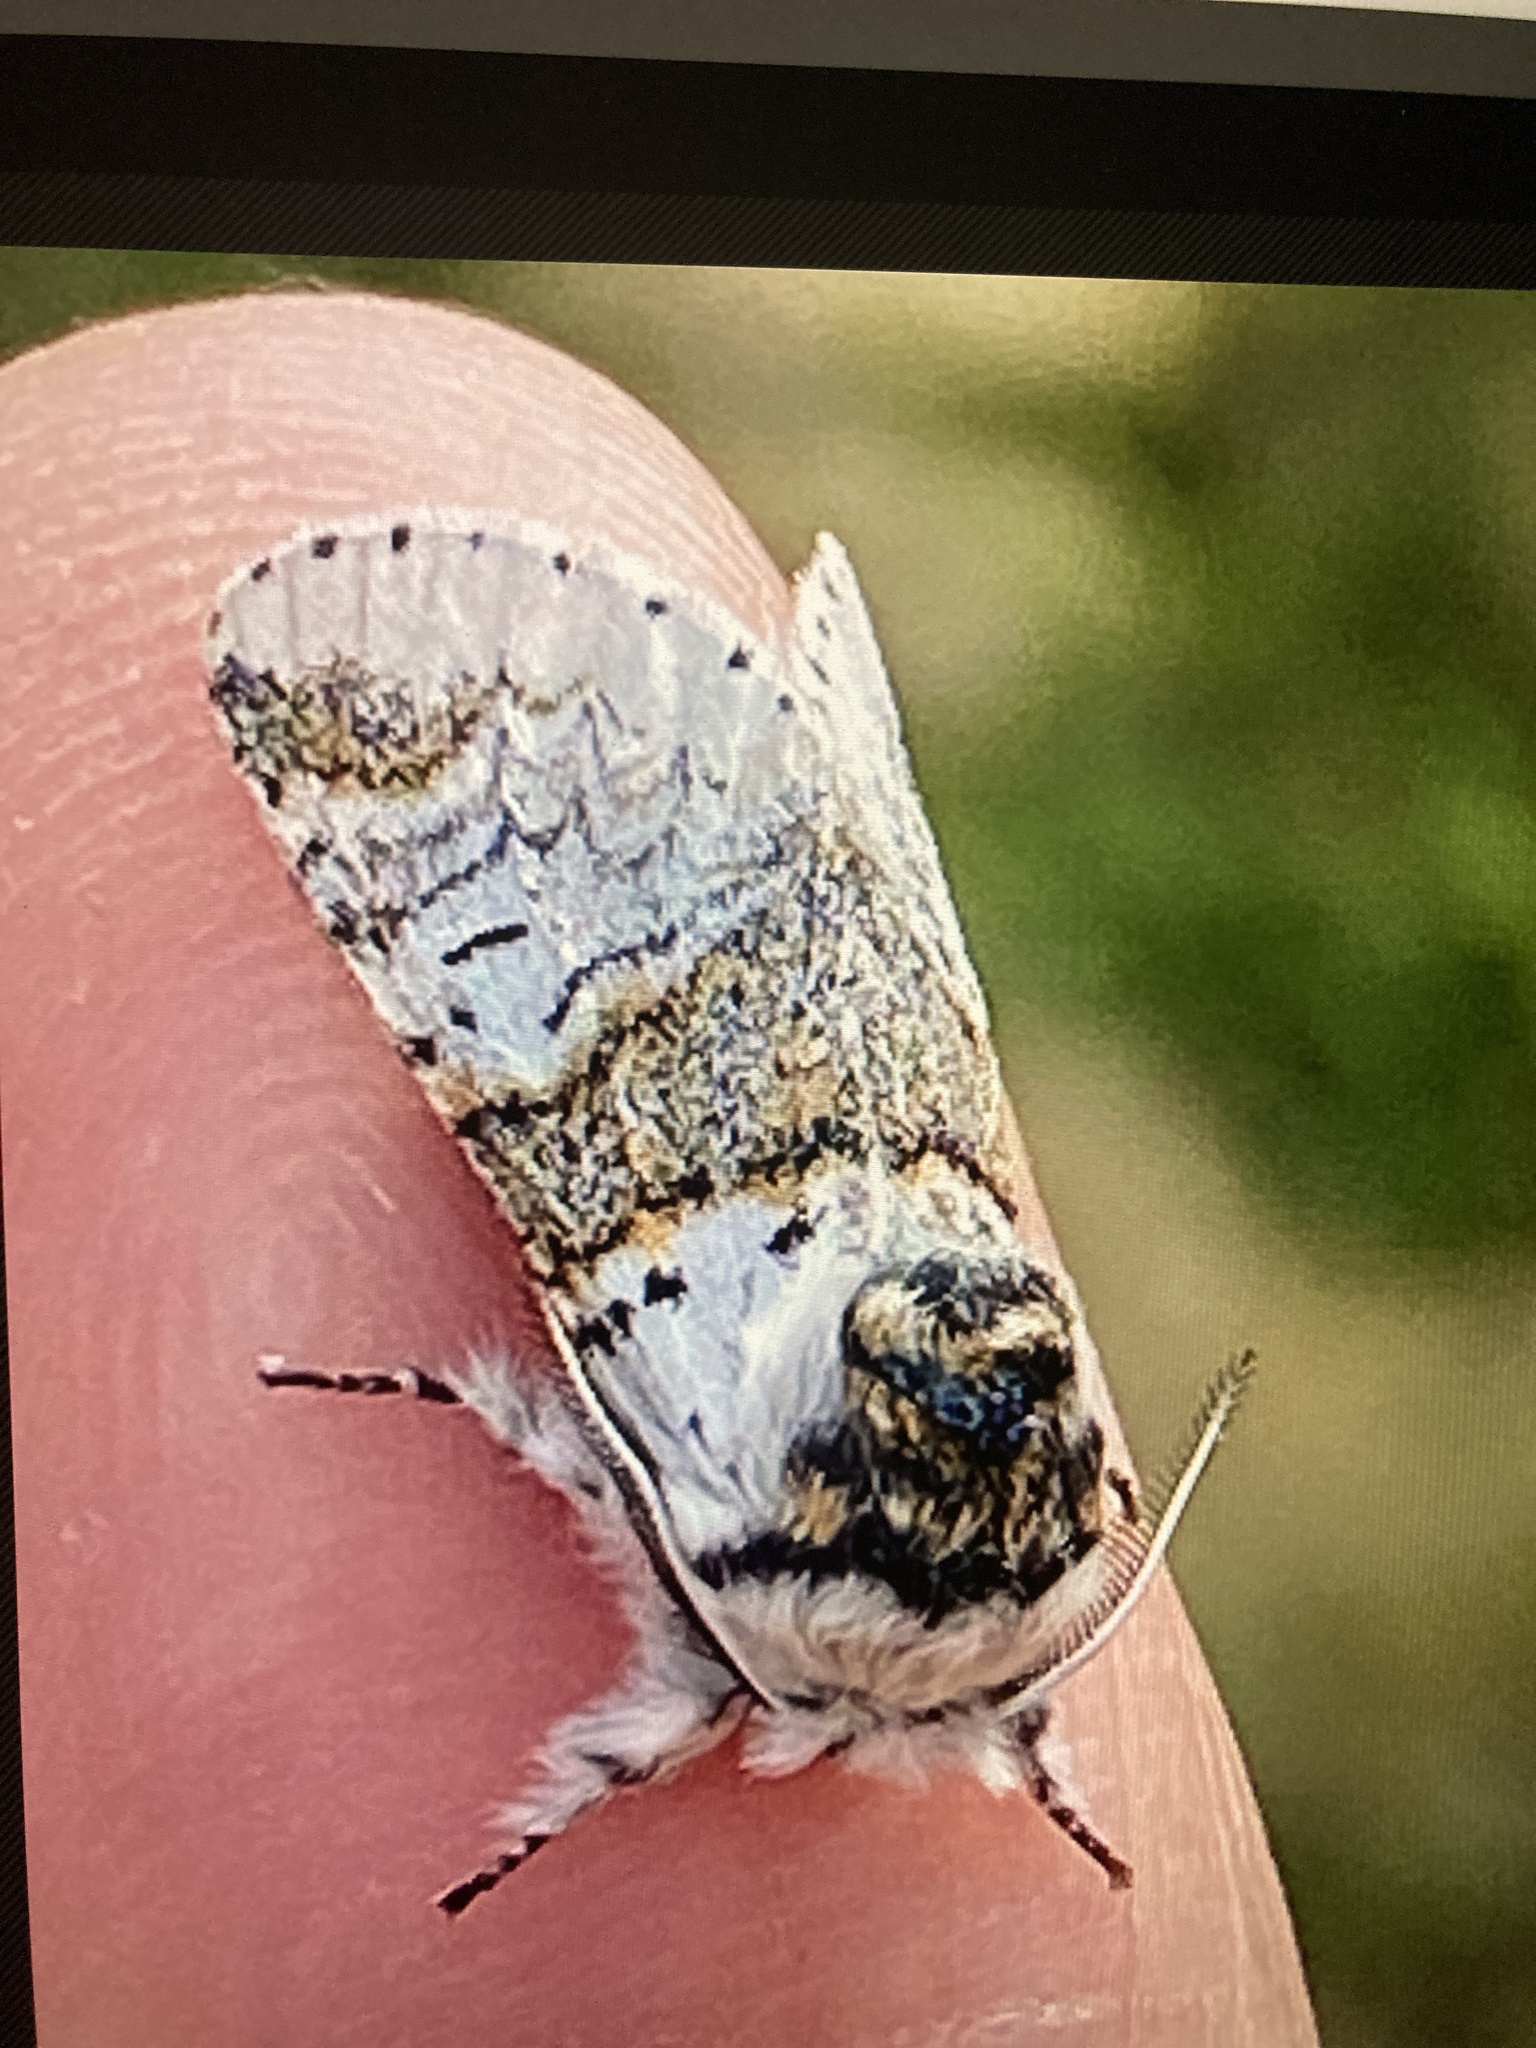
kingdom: Animalia
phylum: Arthropoda
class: Insecta
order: Lepidoptera
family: Notodontidae
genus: Furcula
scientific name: Furcula furcula
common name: Sallow kitten
